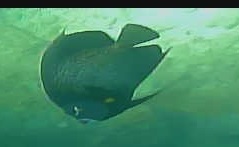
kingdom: Animalia
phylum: Chordata
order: Perciformes
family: Pomacanthidae
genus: Pomacanthus
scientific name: Pomacanthus arcuatus
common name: Gray angelfish
